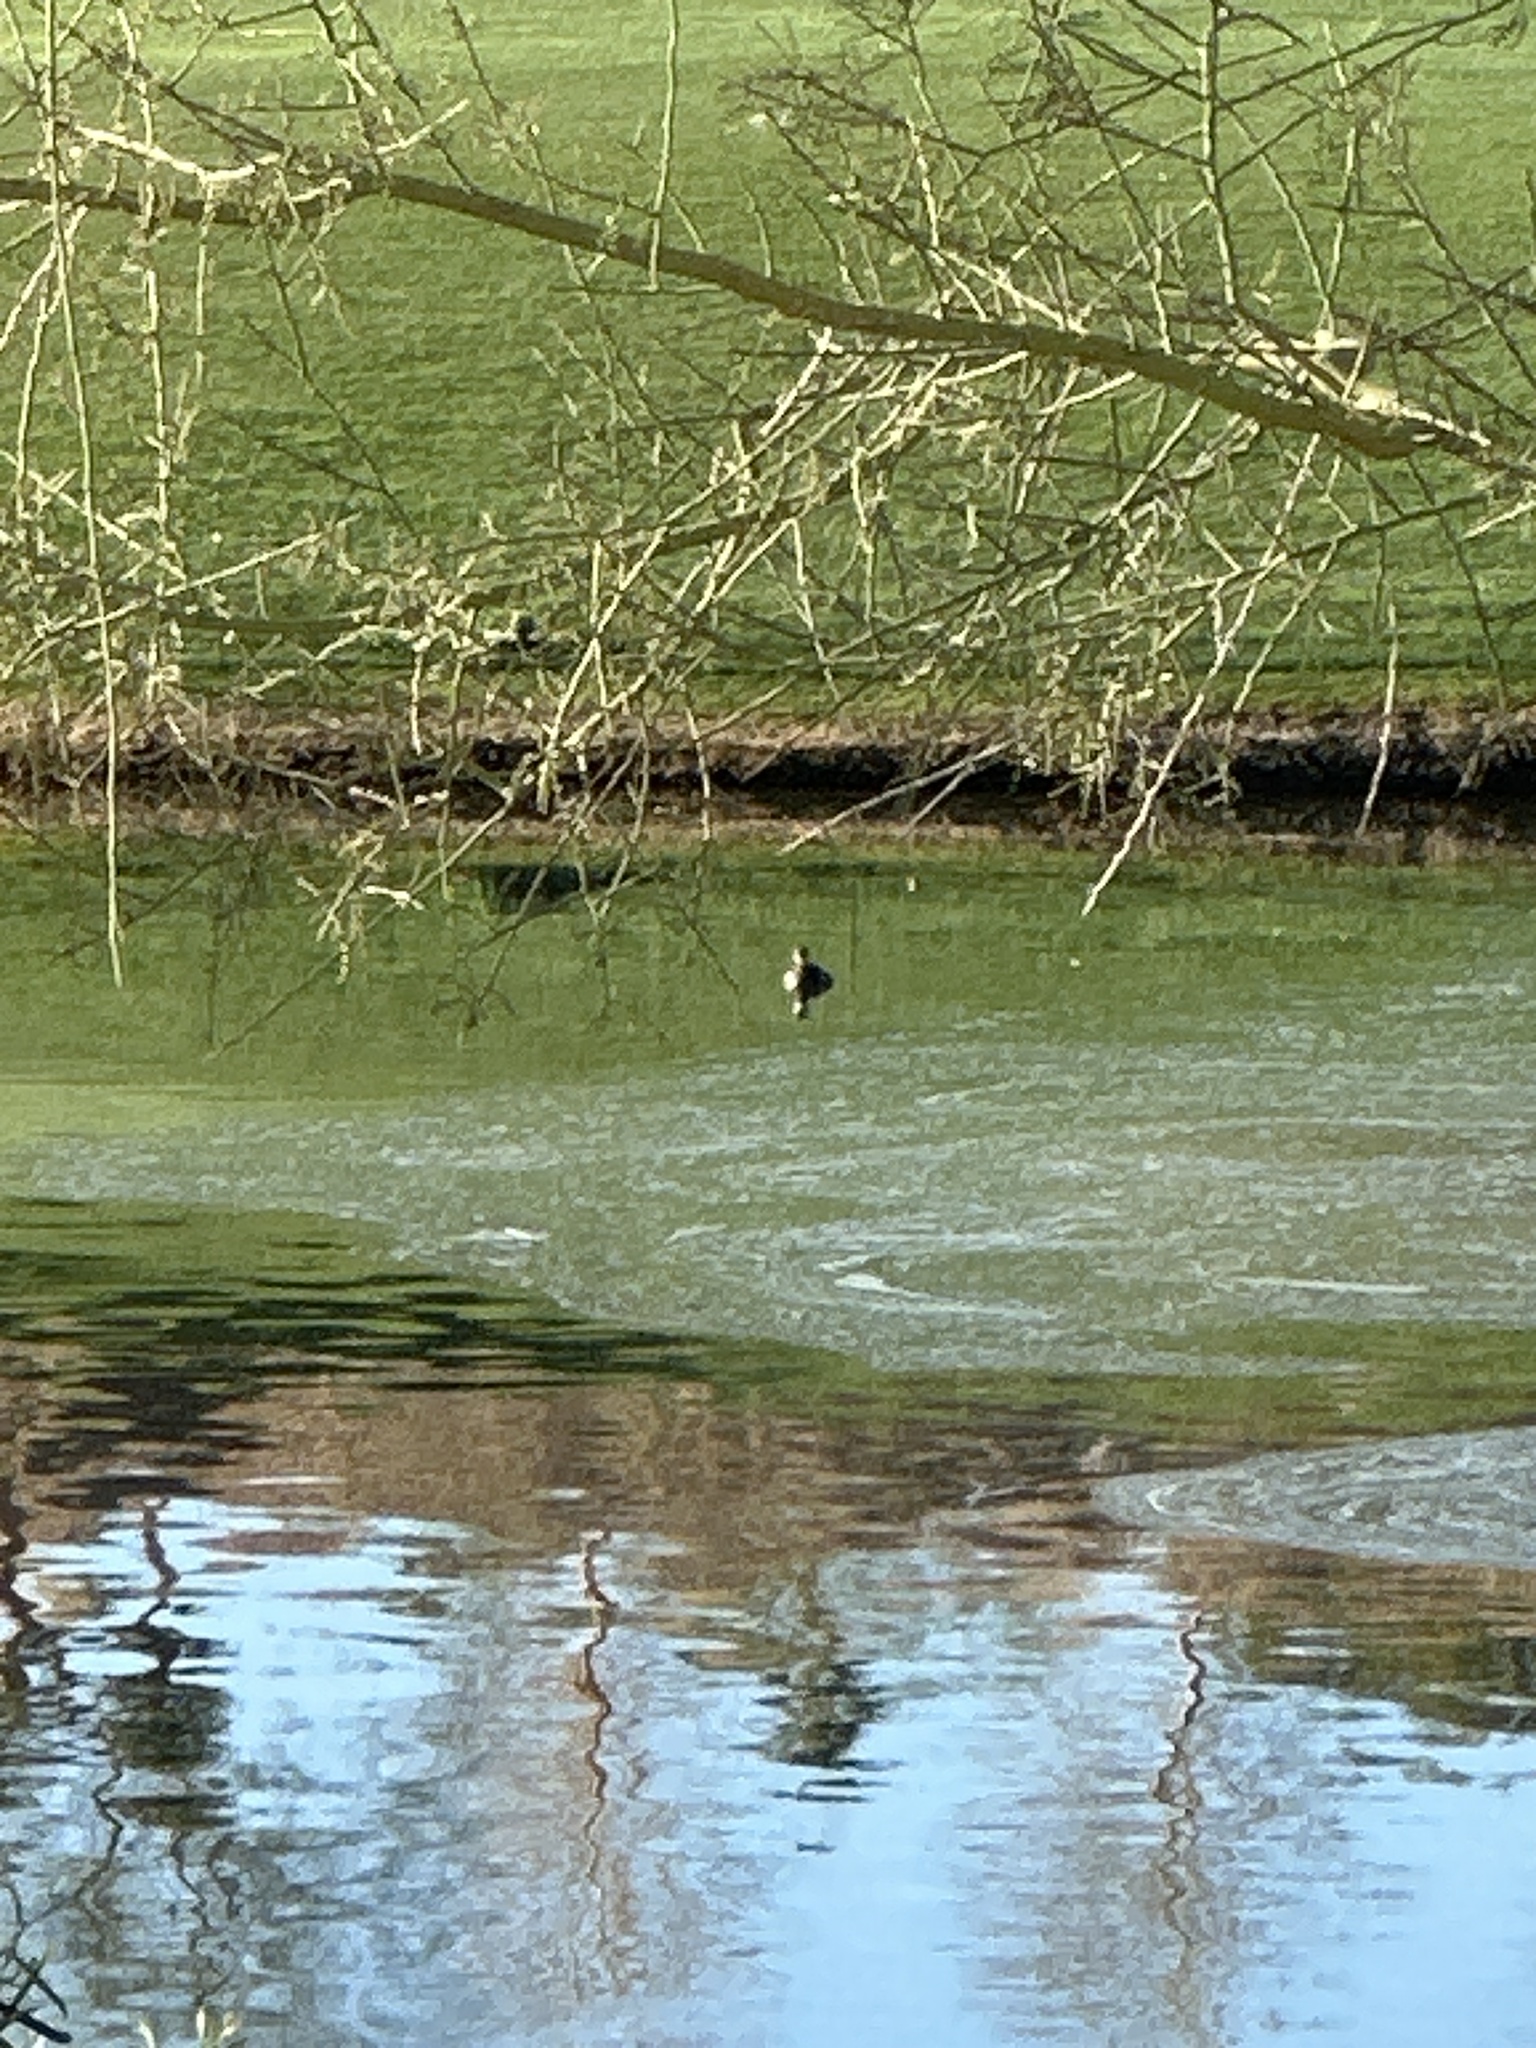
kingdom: Animalia
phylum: Chordata
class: Aves
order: Podicipediformes
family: Podicipedidae
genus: Podilymbus
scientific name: Podilymbus podiceps
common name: Pied-billed grebe
